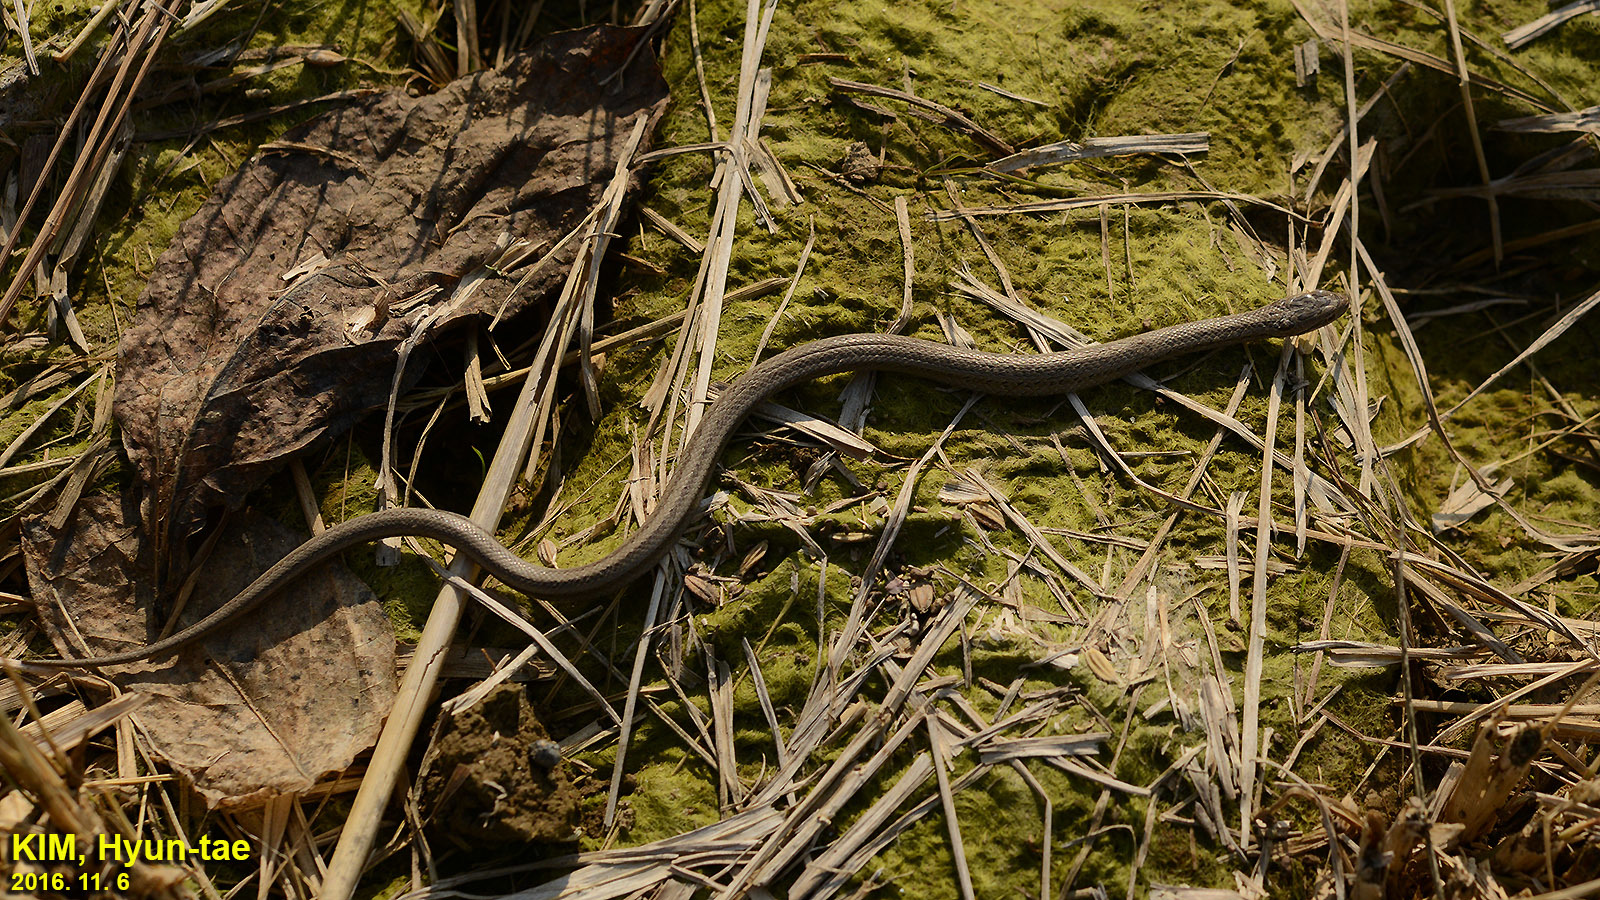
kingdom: Animalia
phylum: Chordata
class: Squamata
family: Colubridae
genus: Oocatochus
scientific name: Oocatochus rufodorsatus
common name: Frog-eating rat snake
